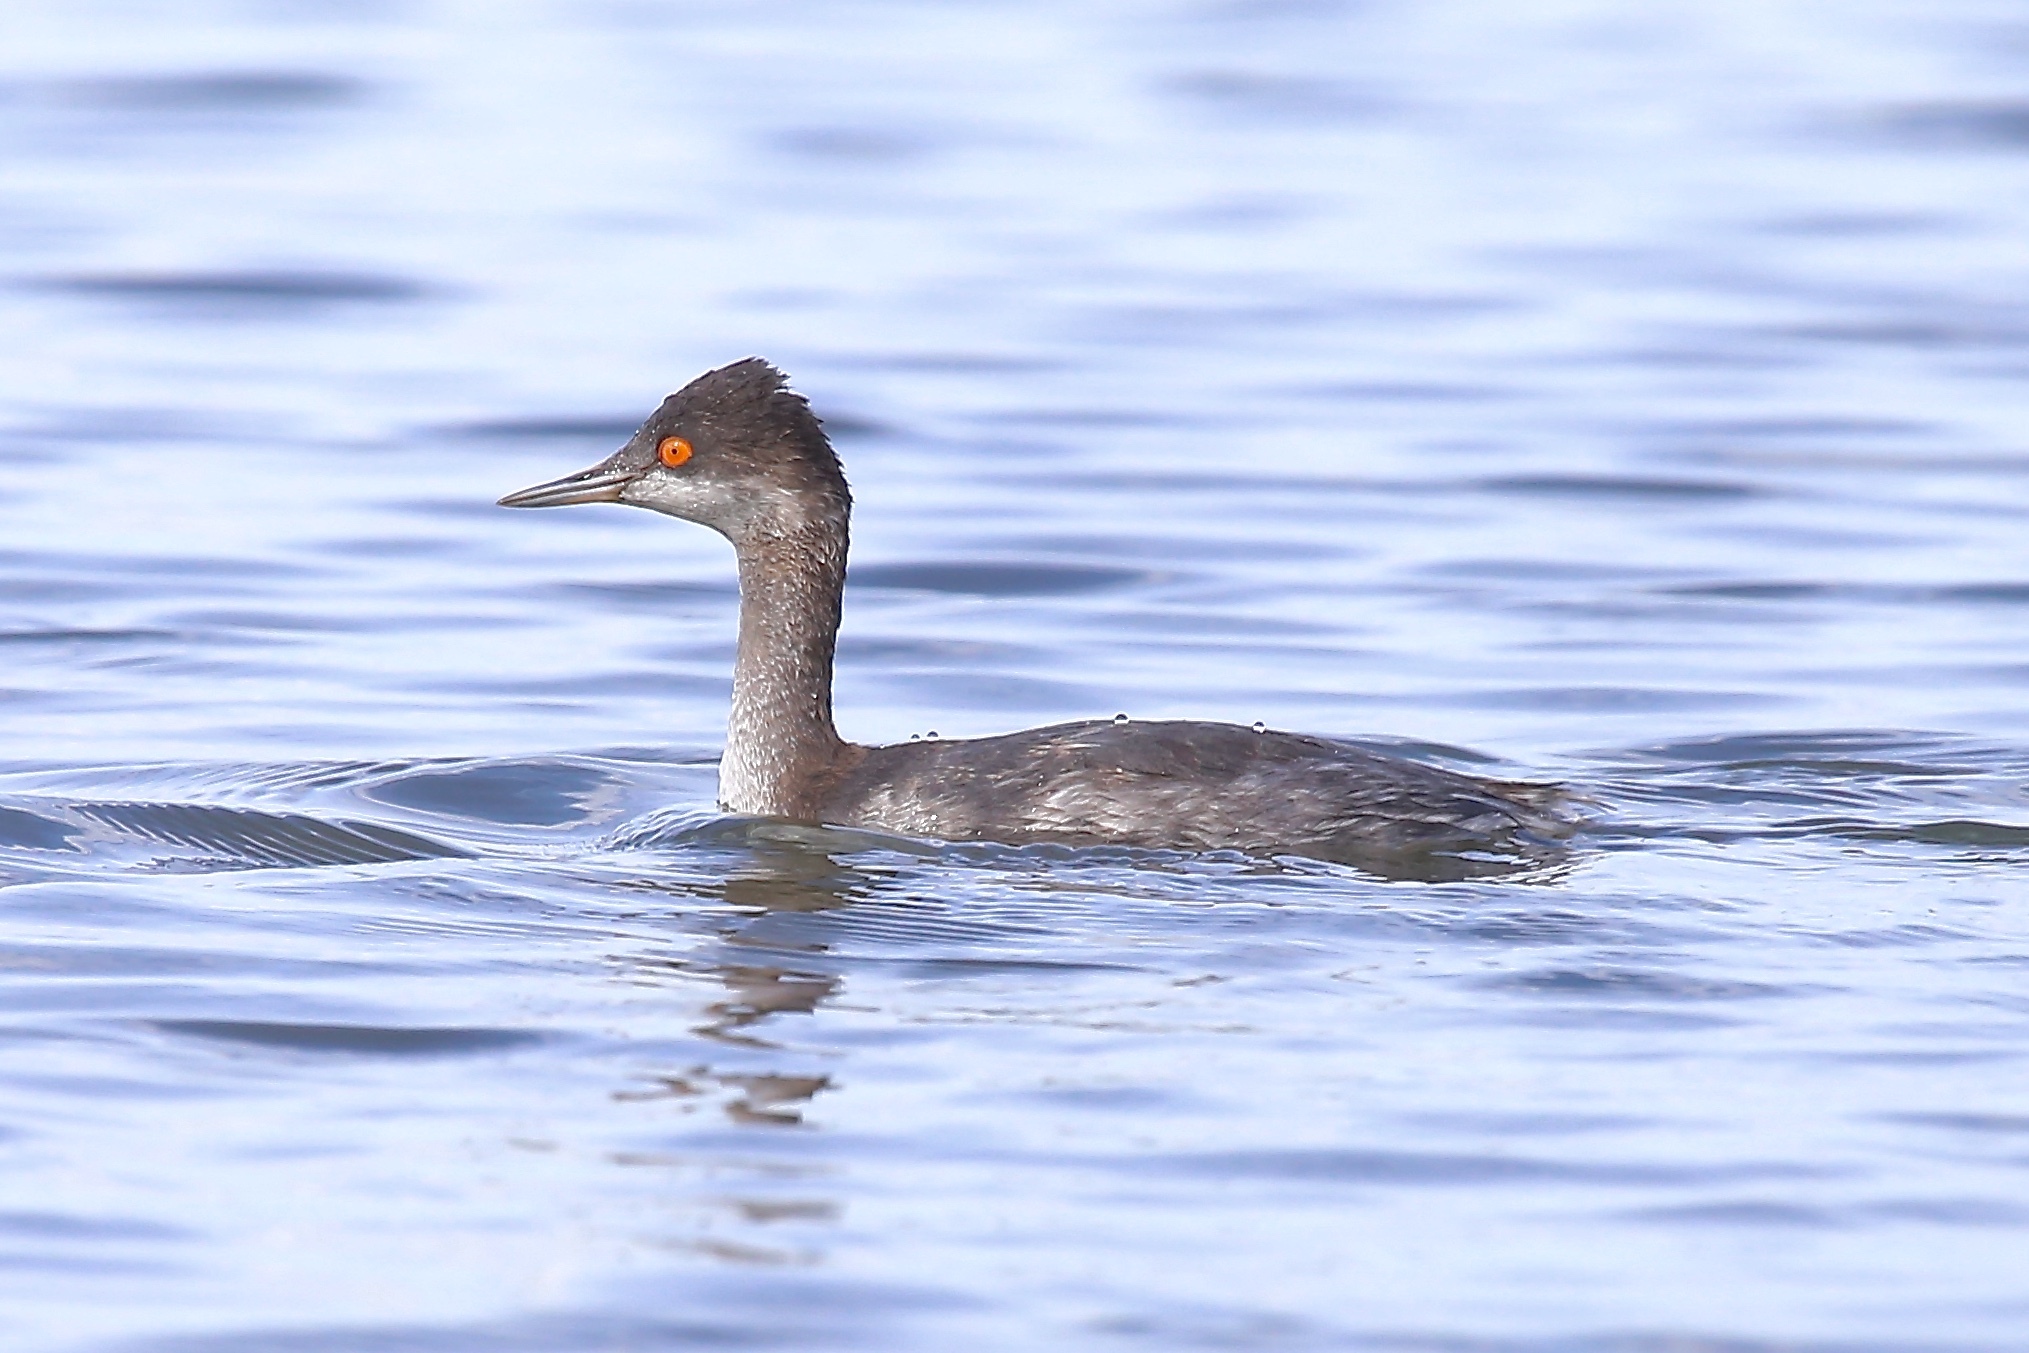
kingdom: Animalia
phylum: Chordata
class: Aves
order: Podicipediformes
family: Podicipedidae
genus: Podiceps
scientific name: Podiceps nigricollis
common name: Black-necked grebe
